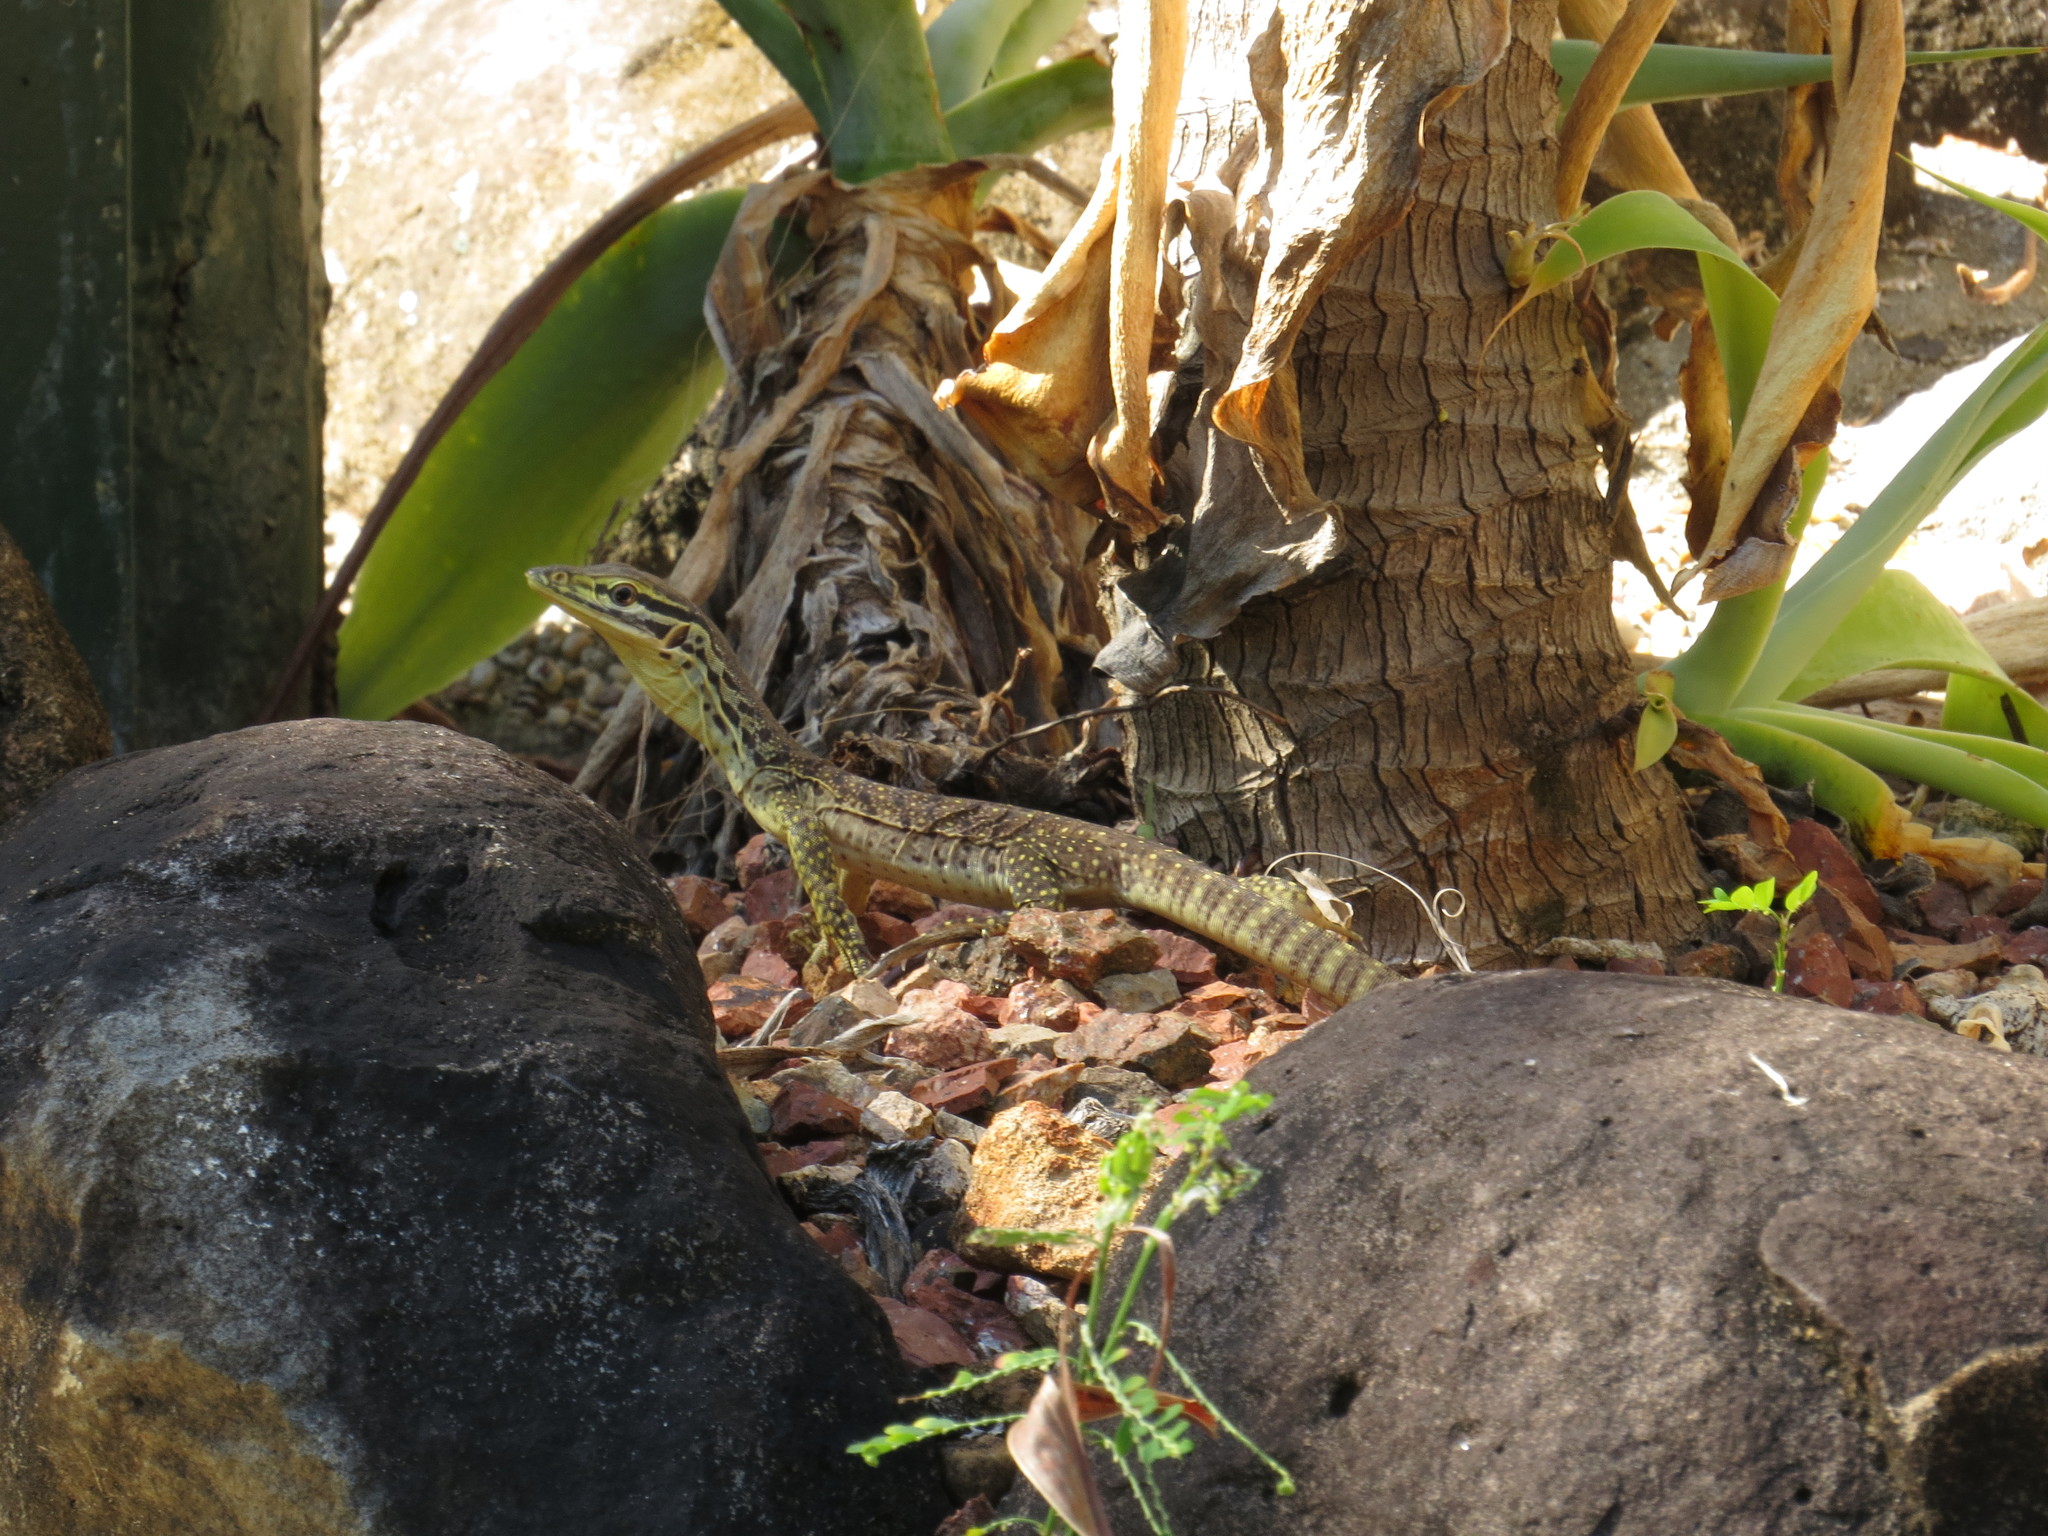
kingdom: Animalia
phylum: Chordata
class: Squamata
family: Varanidae
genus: Varanus
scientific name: Varanus panoptes
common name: Yellow-spotted monitor
